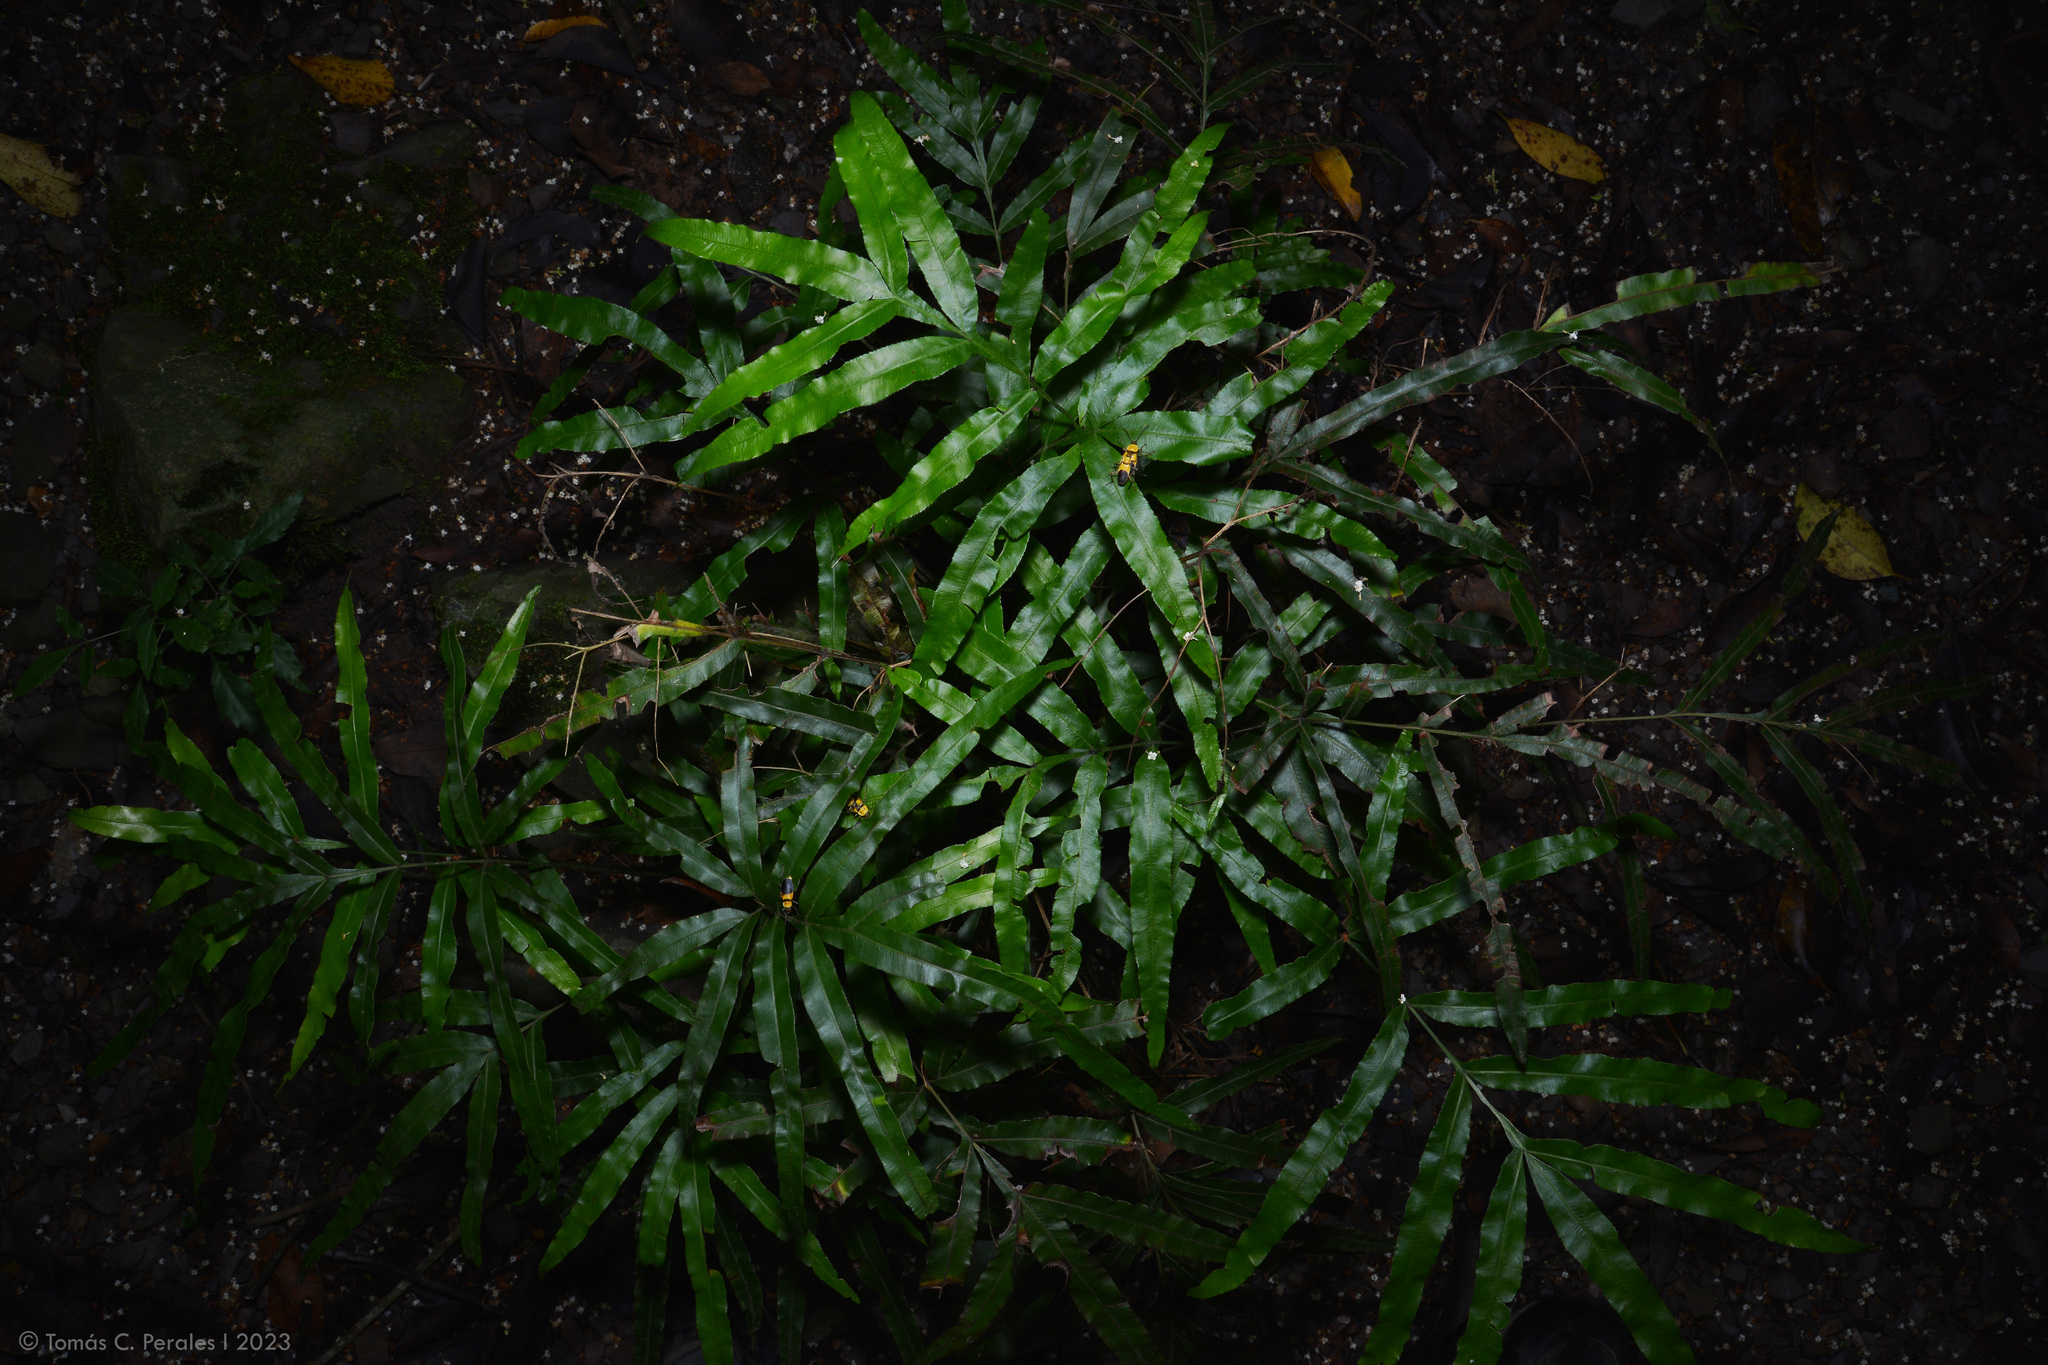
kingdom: Animalia
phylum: Arthropoda
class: Insecta
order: Coleoptera
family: Cantharidae
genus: Chauliognathus
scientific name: Chauliognathus
